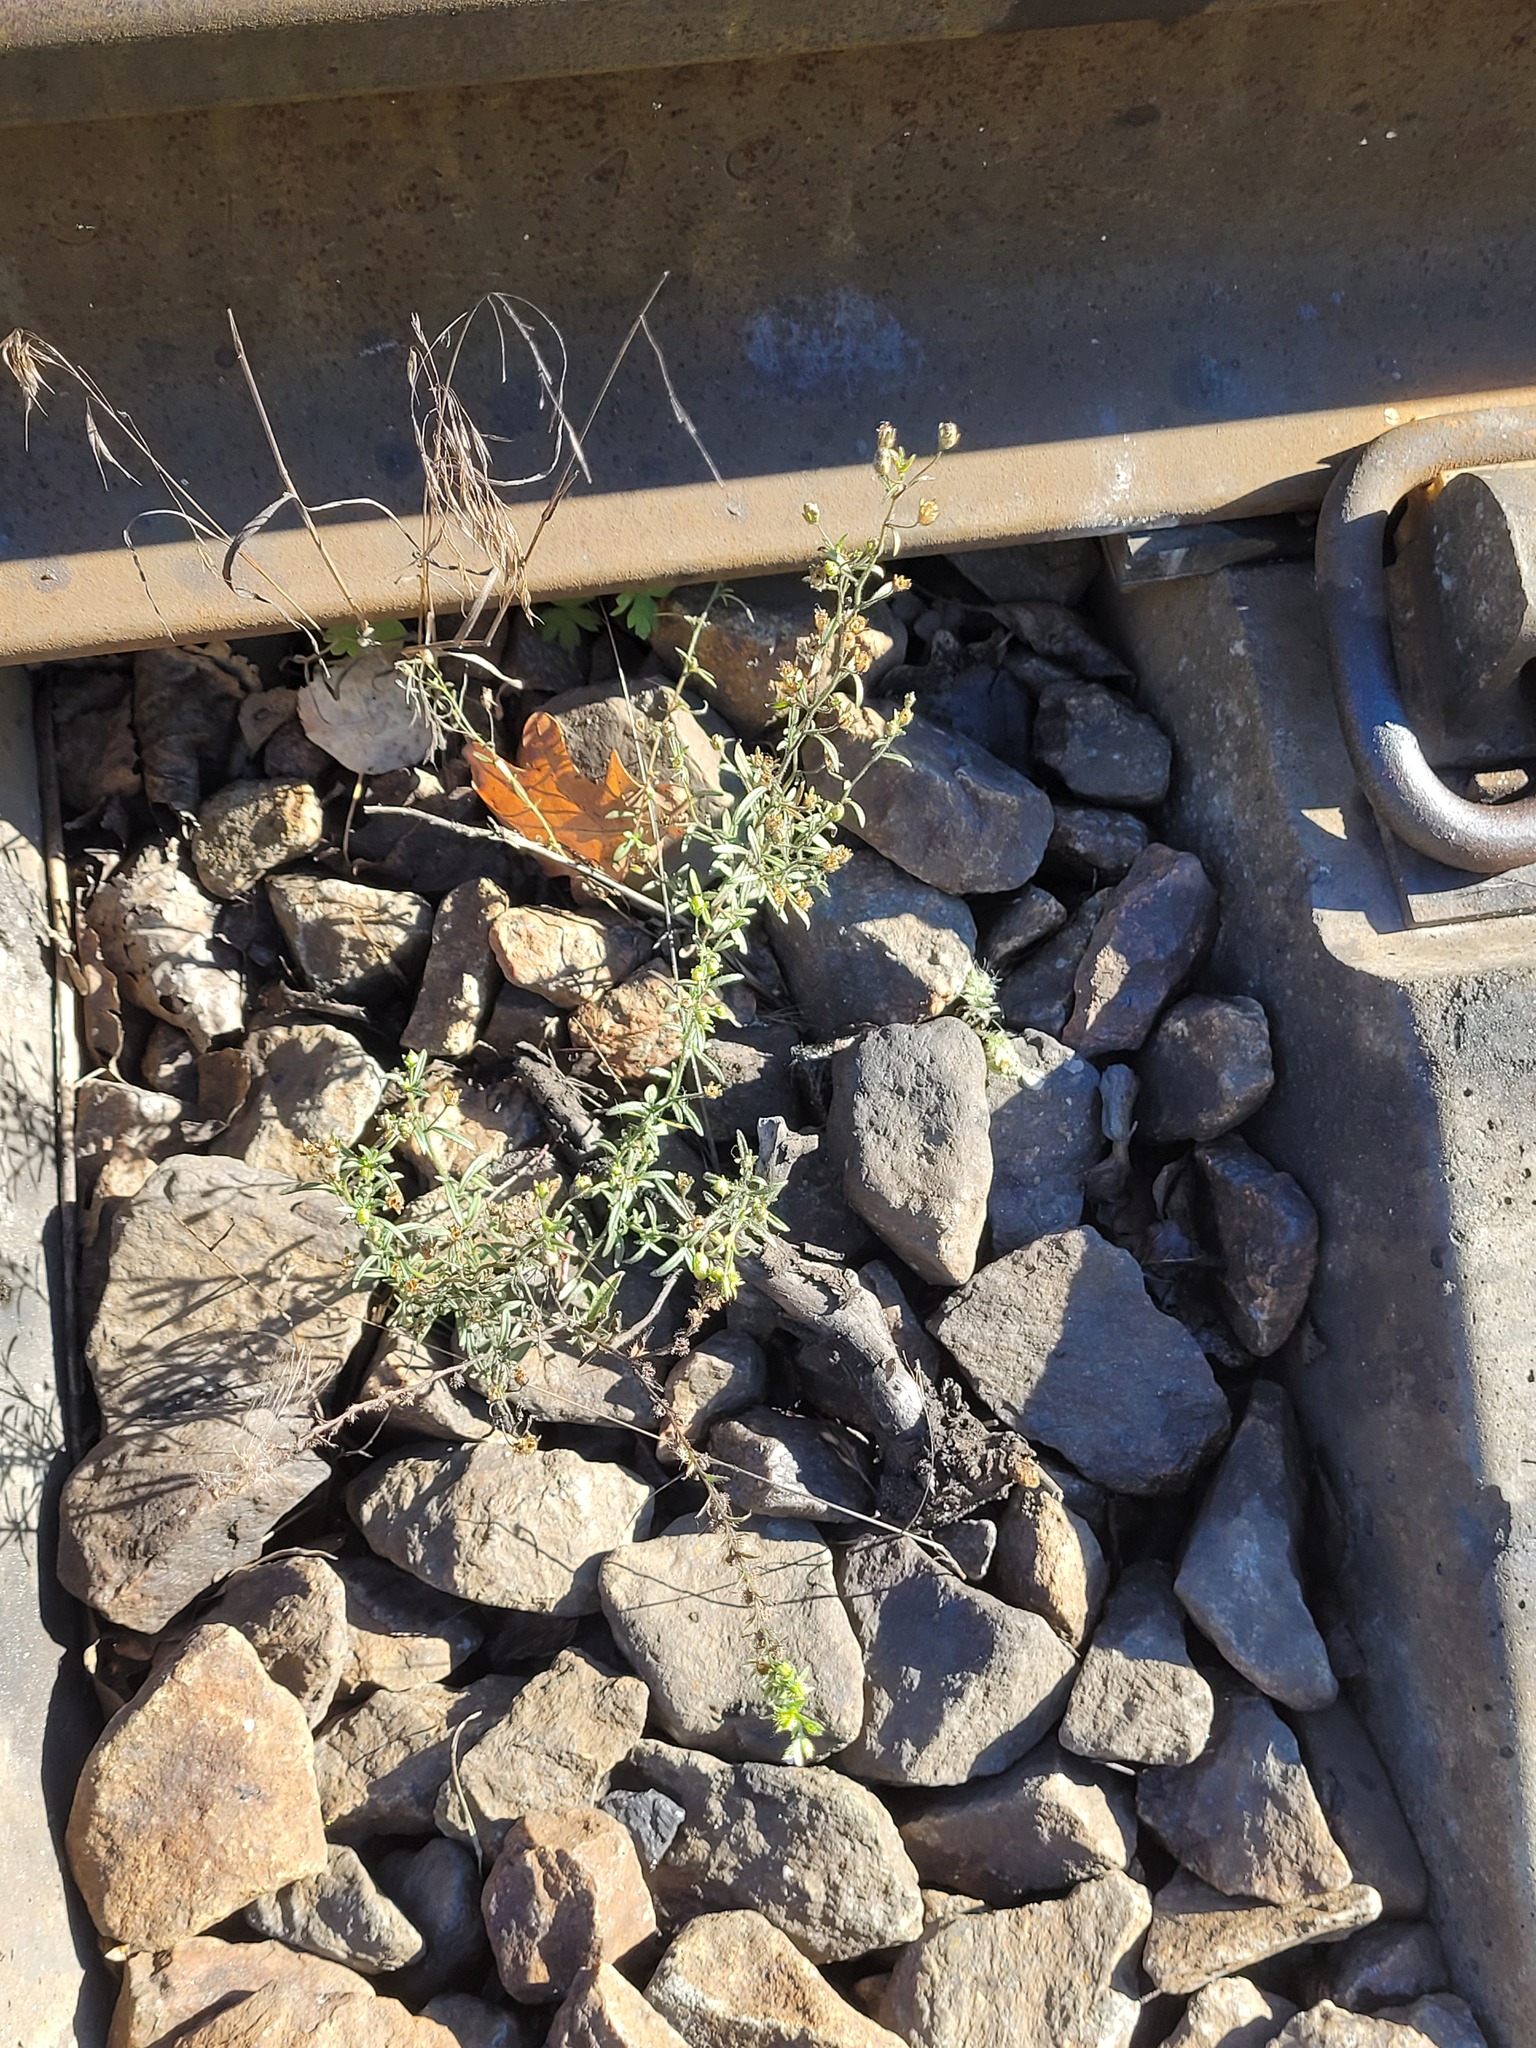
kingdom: Plantae
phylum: Tracheophyta
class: Magnoliopsida
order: Lamiales
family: Plantaginaceae
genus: Chaenorhinum
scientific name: Chaenorhinum minus
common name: Dwarf snapdragon
